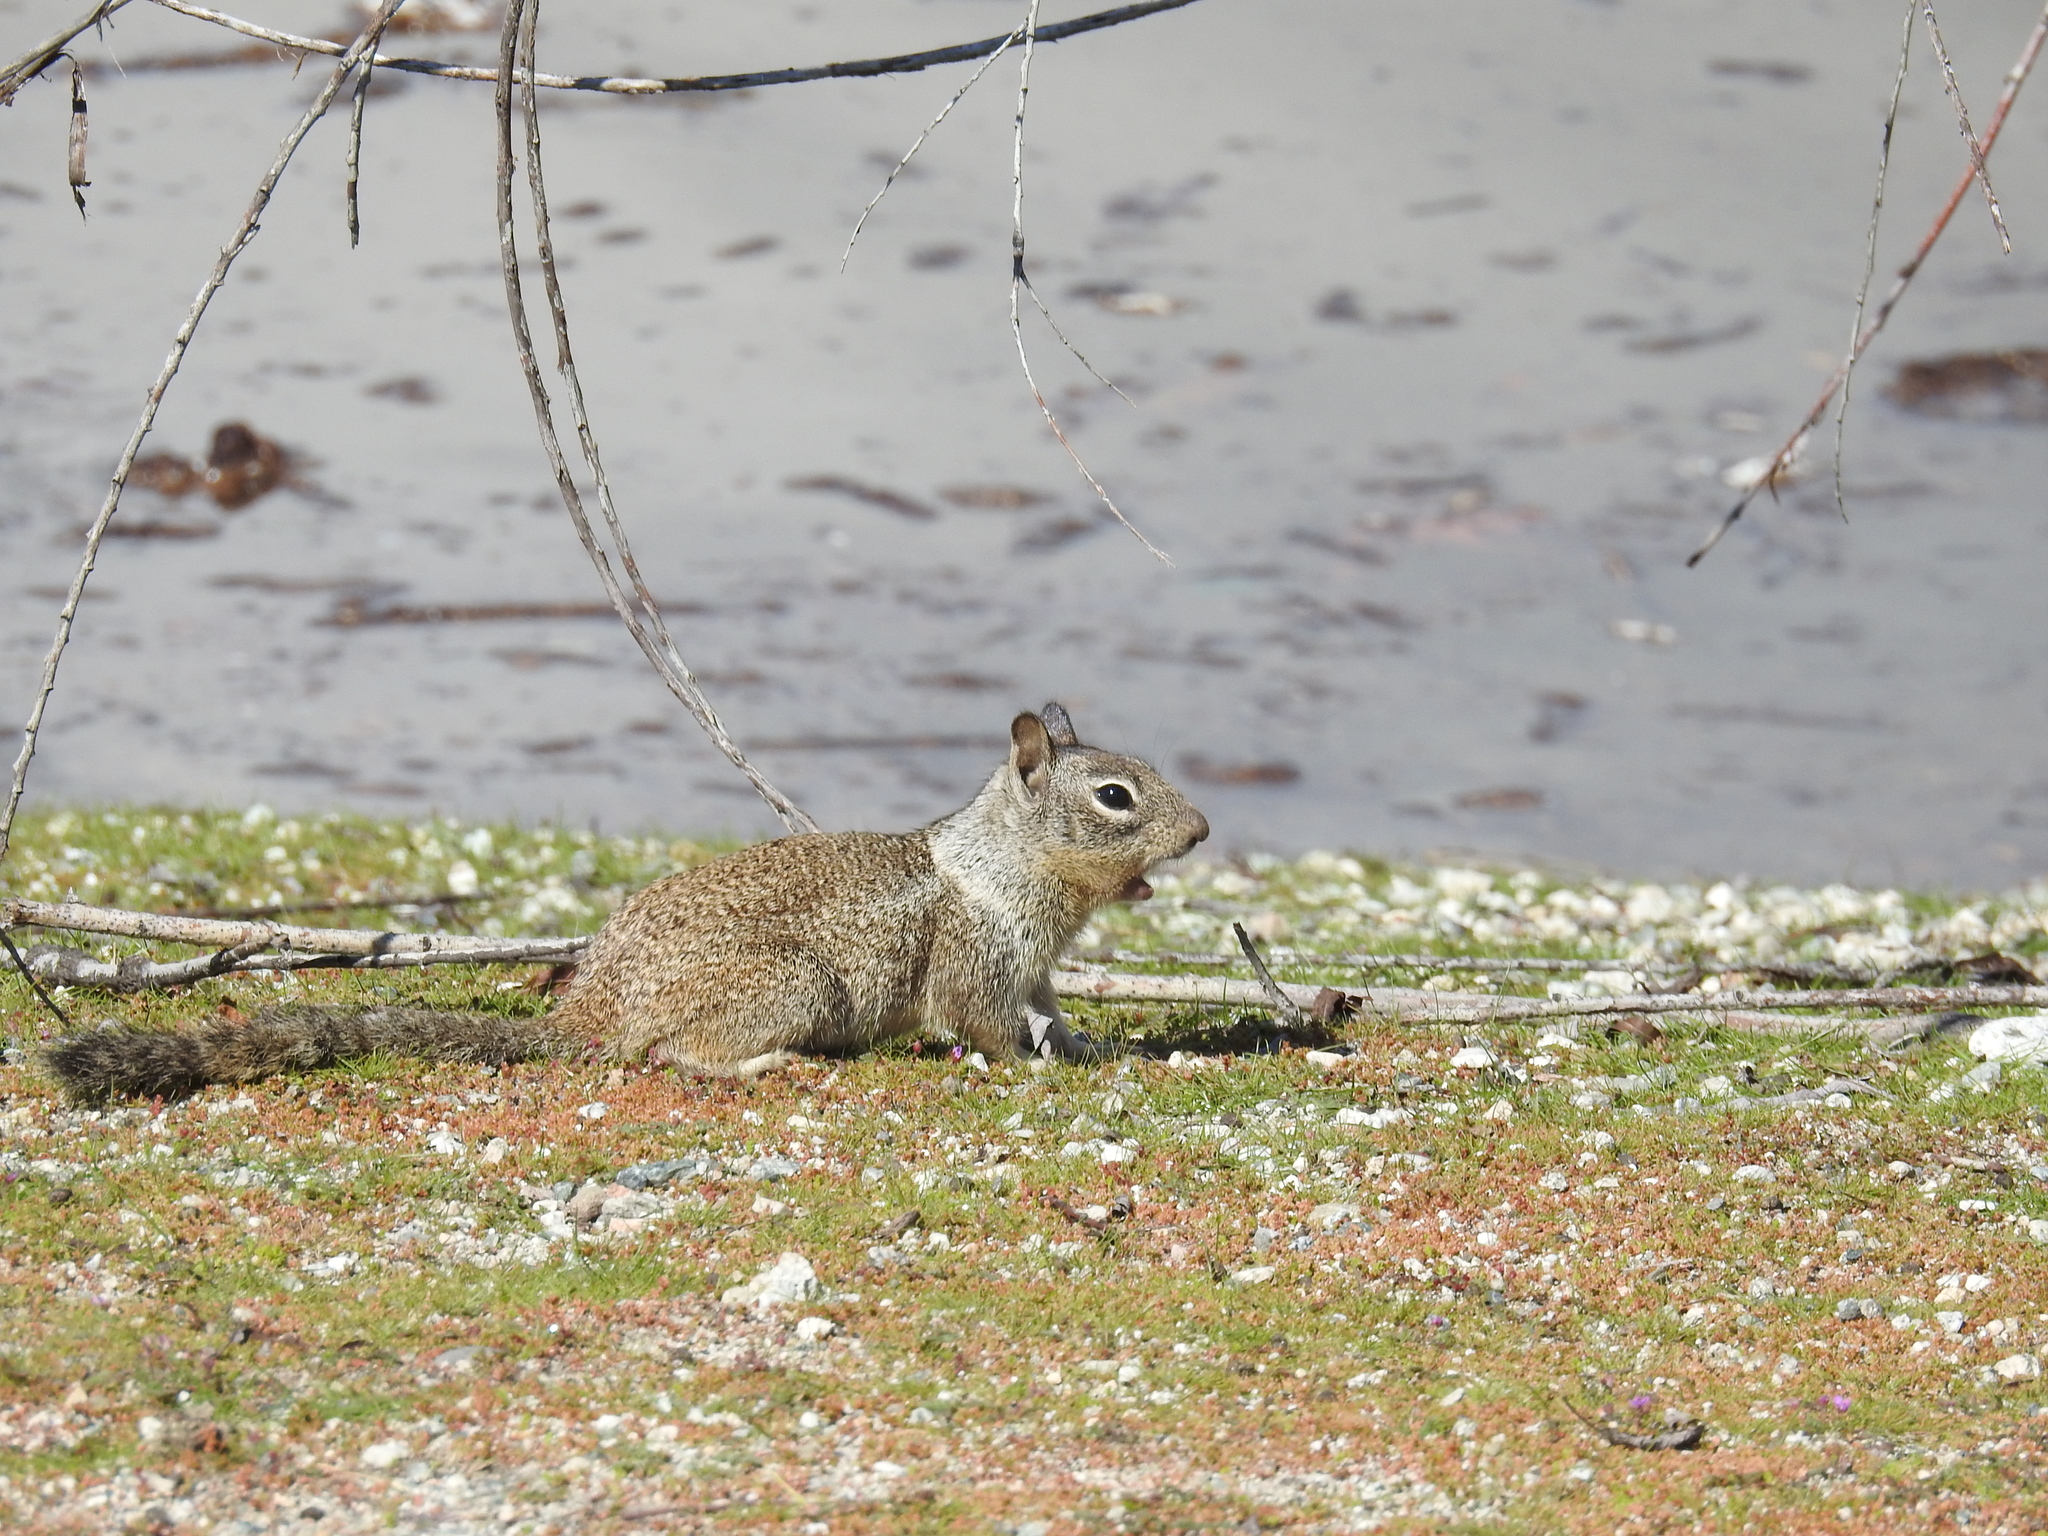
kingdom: Animalia
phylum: Chordata
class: Mammalia
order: Rodentia
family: Sciuridae
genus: Otospermophilus
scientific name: Otospermophilus beecheyi
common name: California ground squirrel
